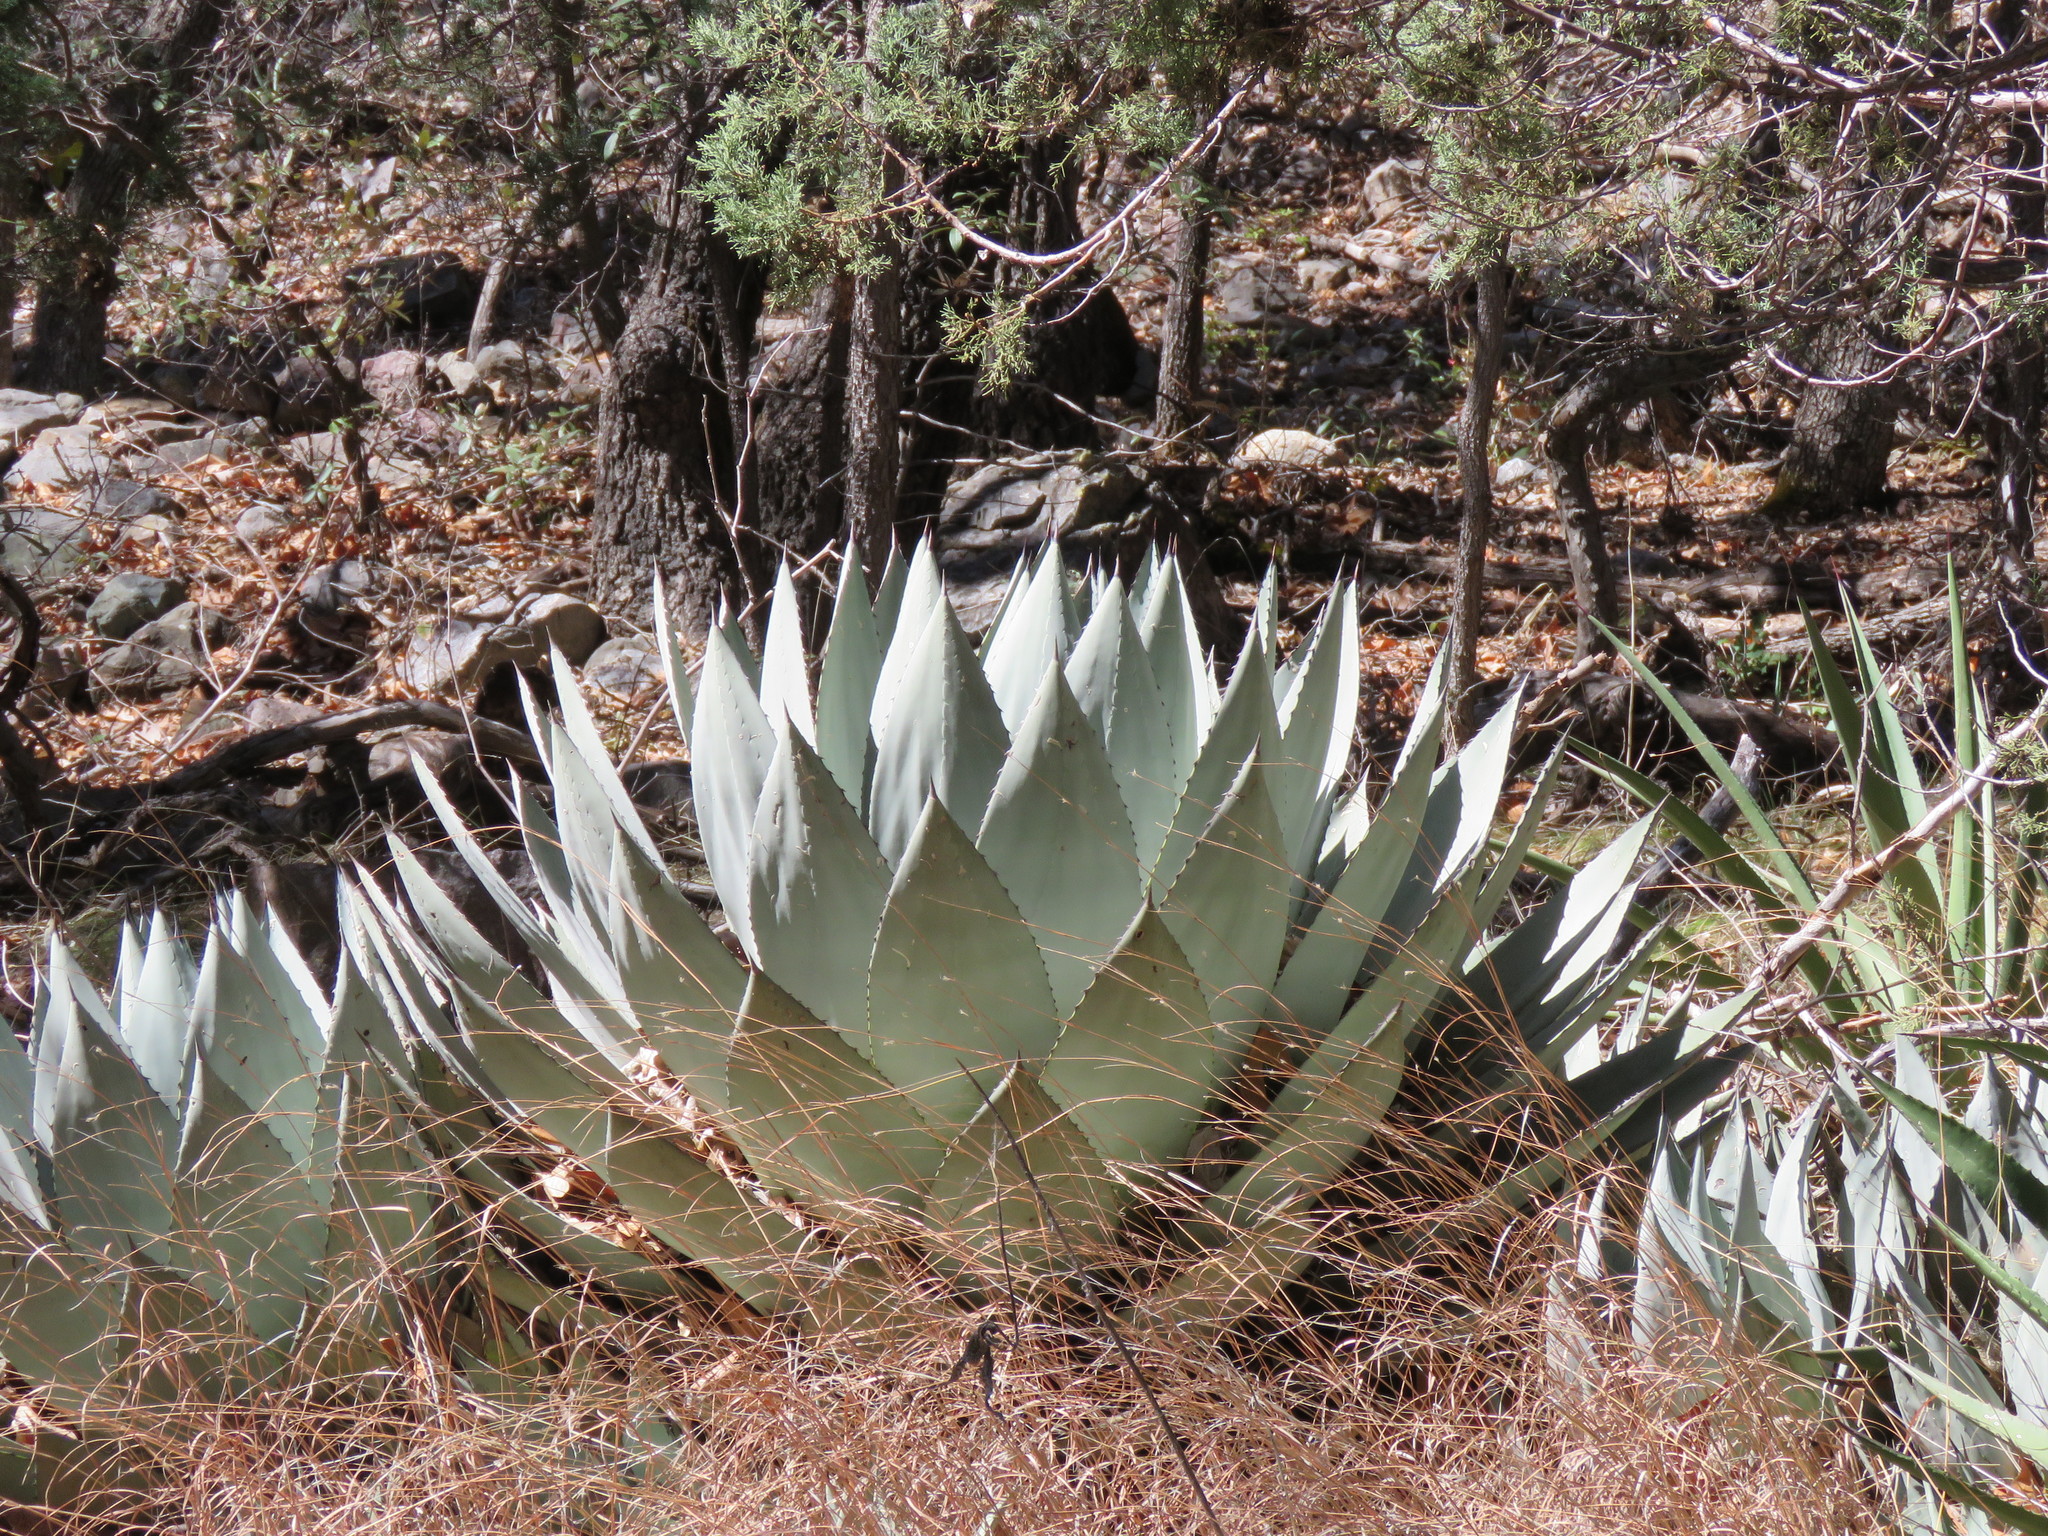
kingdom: Plantae
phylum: Tracheophyta
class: Liliopsida
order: Asparagales
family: Asparagaceae
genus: Agave
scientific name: Agave parryi
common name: Parry's agave
